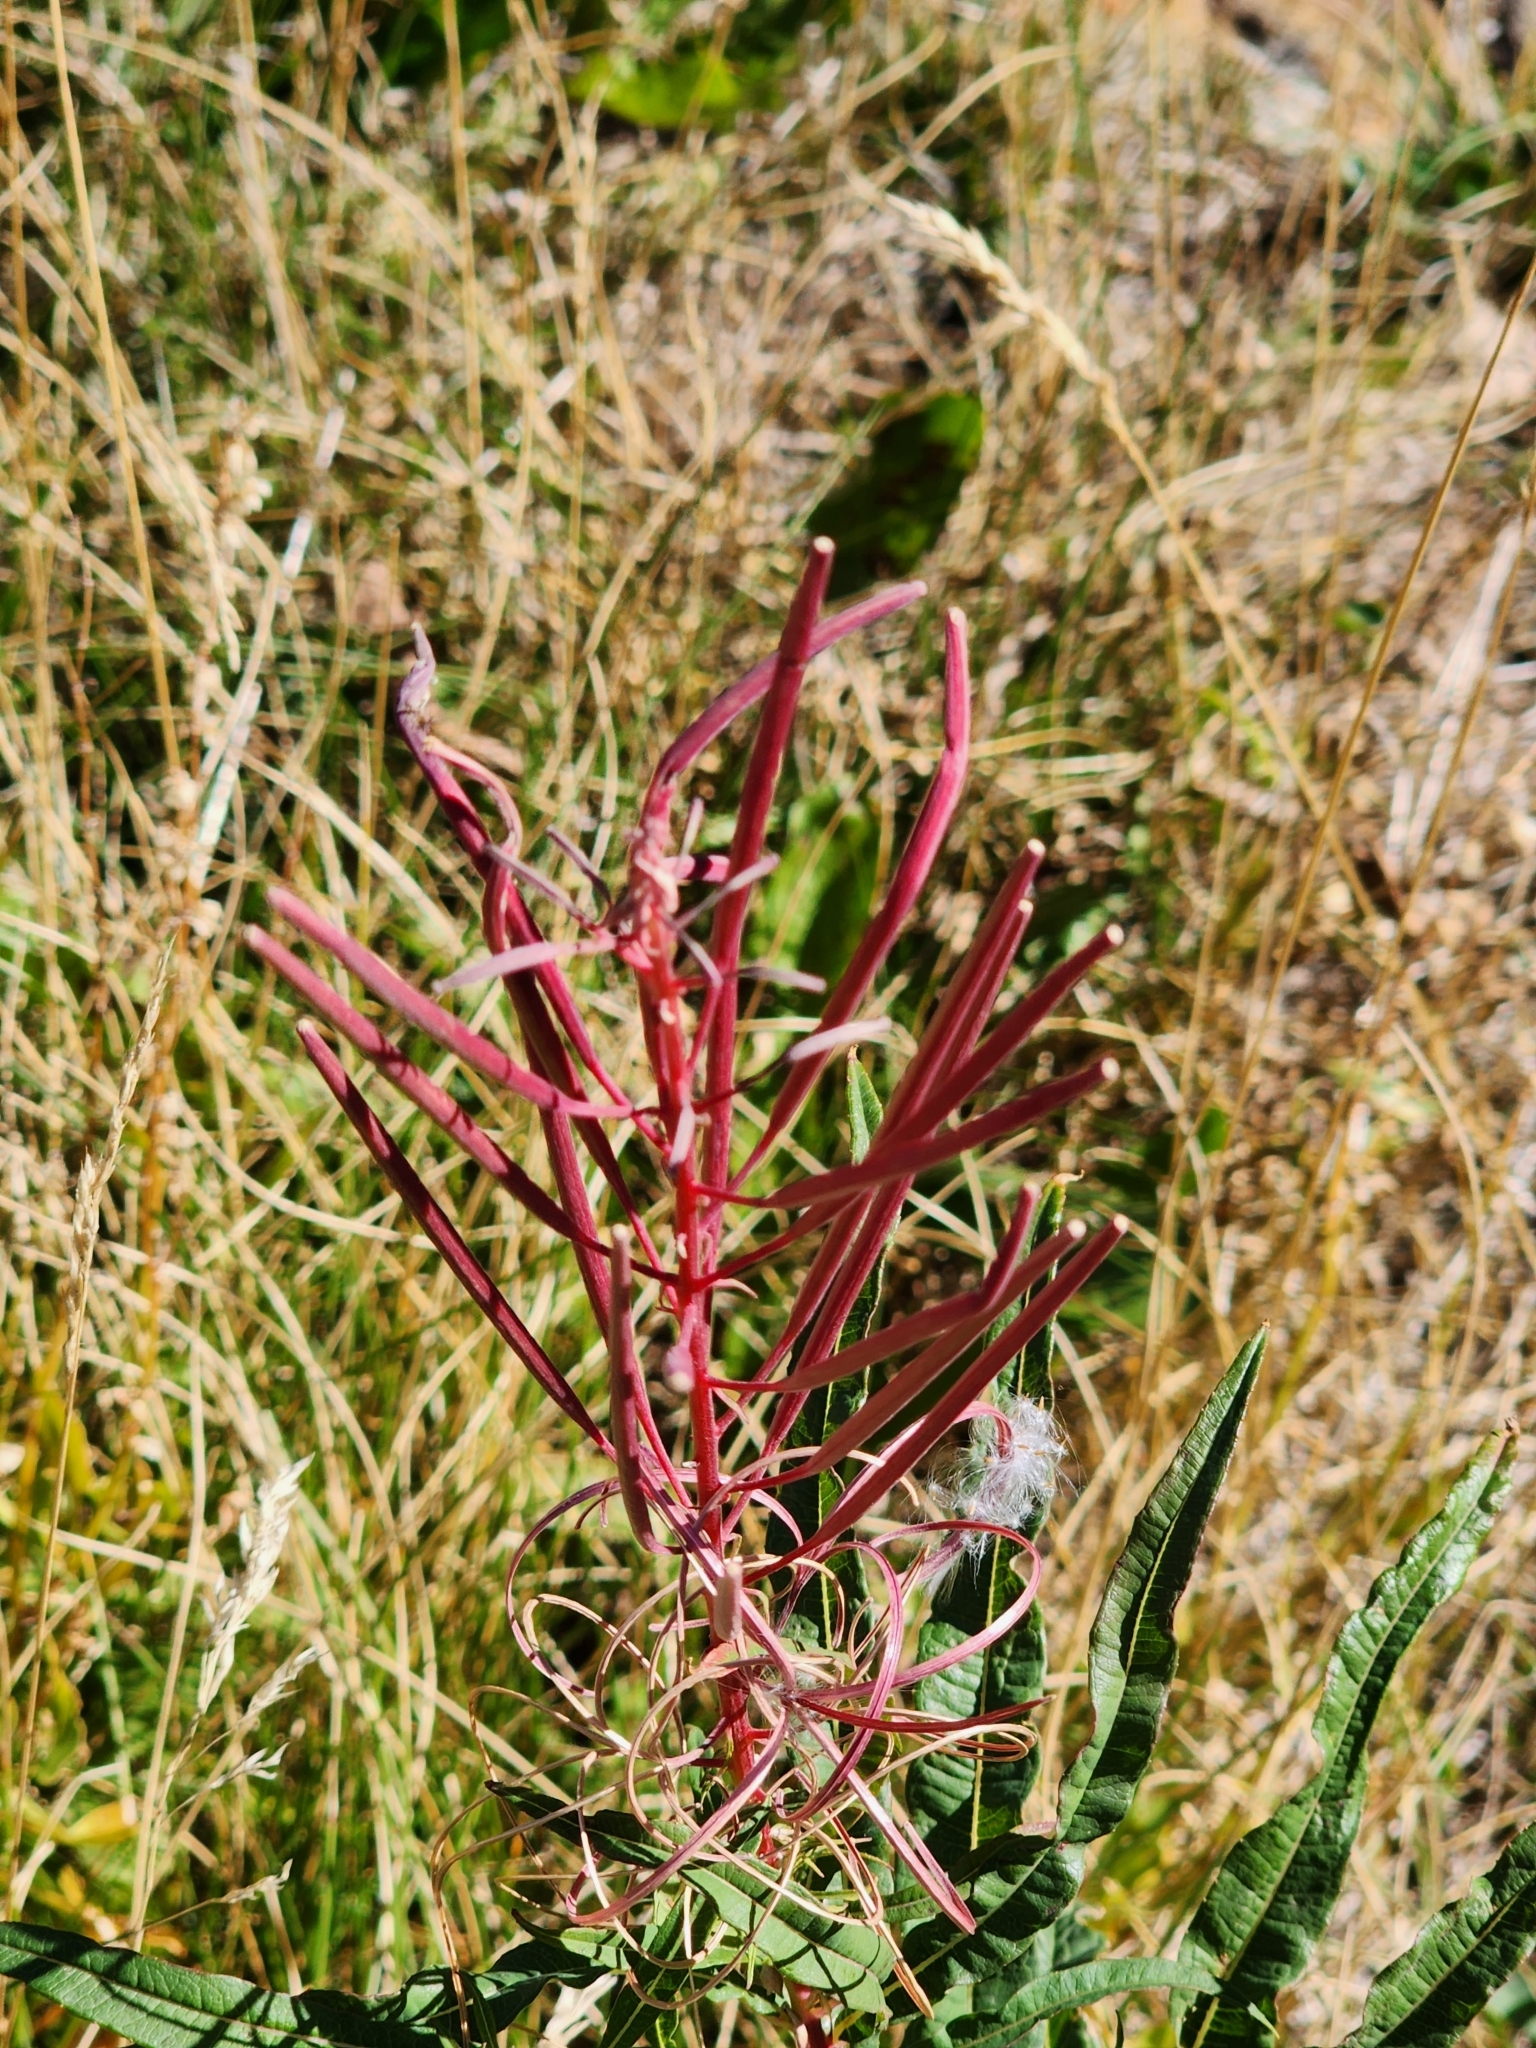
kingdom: Plantae
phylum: Tracheophyta
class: Magnoliopsida
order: Myrtales
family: Onagraceae
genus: Chamaenerion
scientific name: Chamaenerion angustifolium
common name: Fireweed
